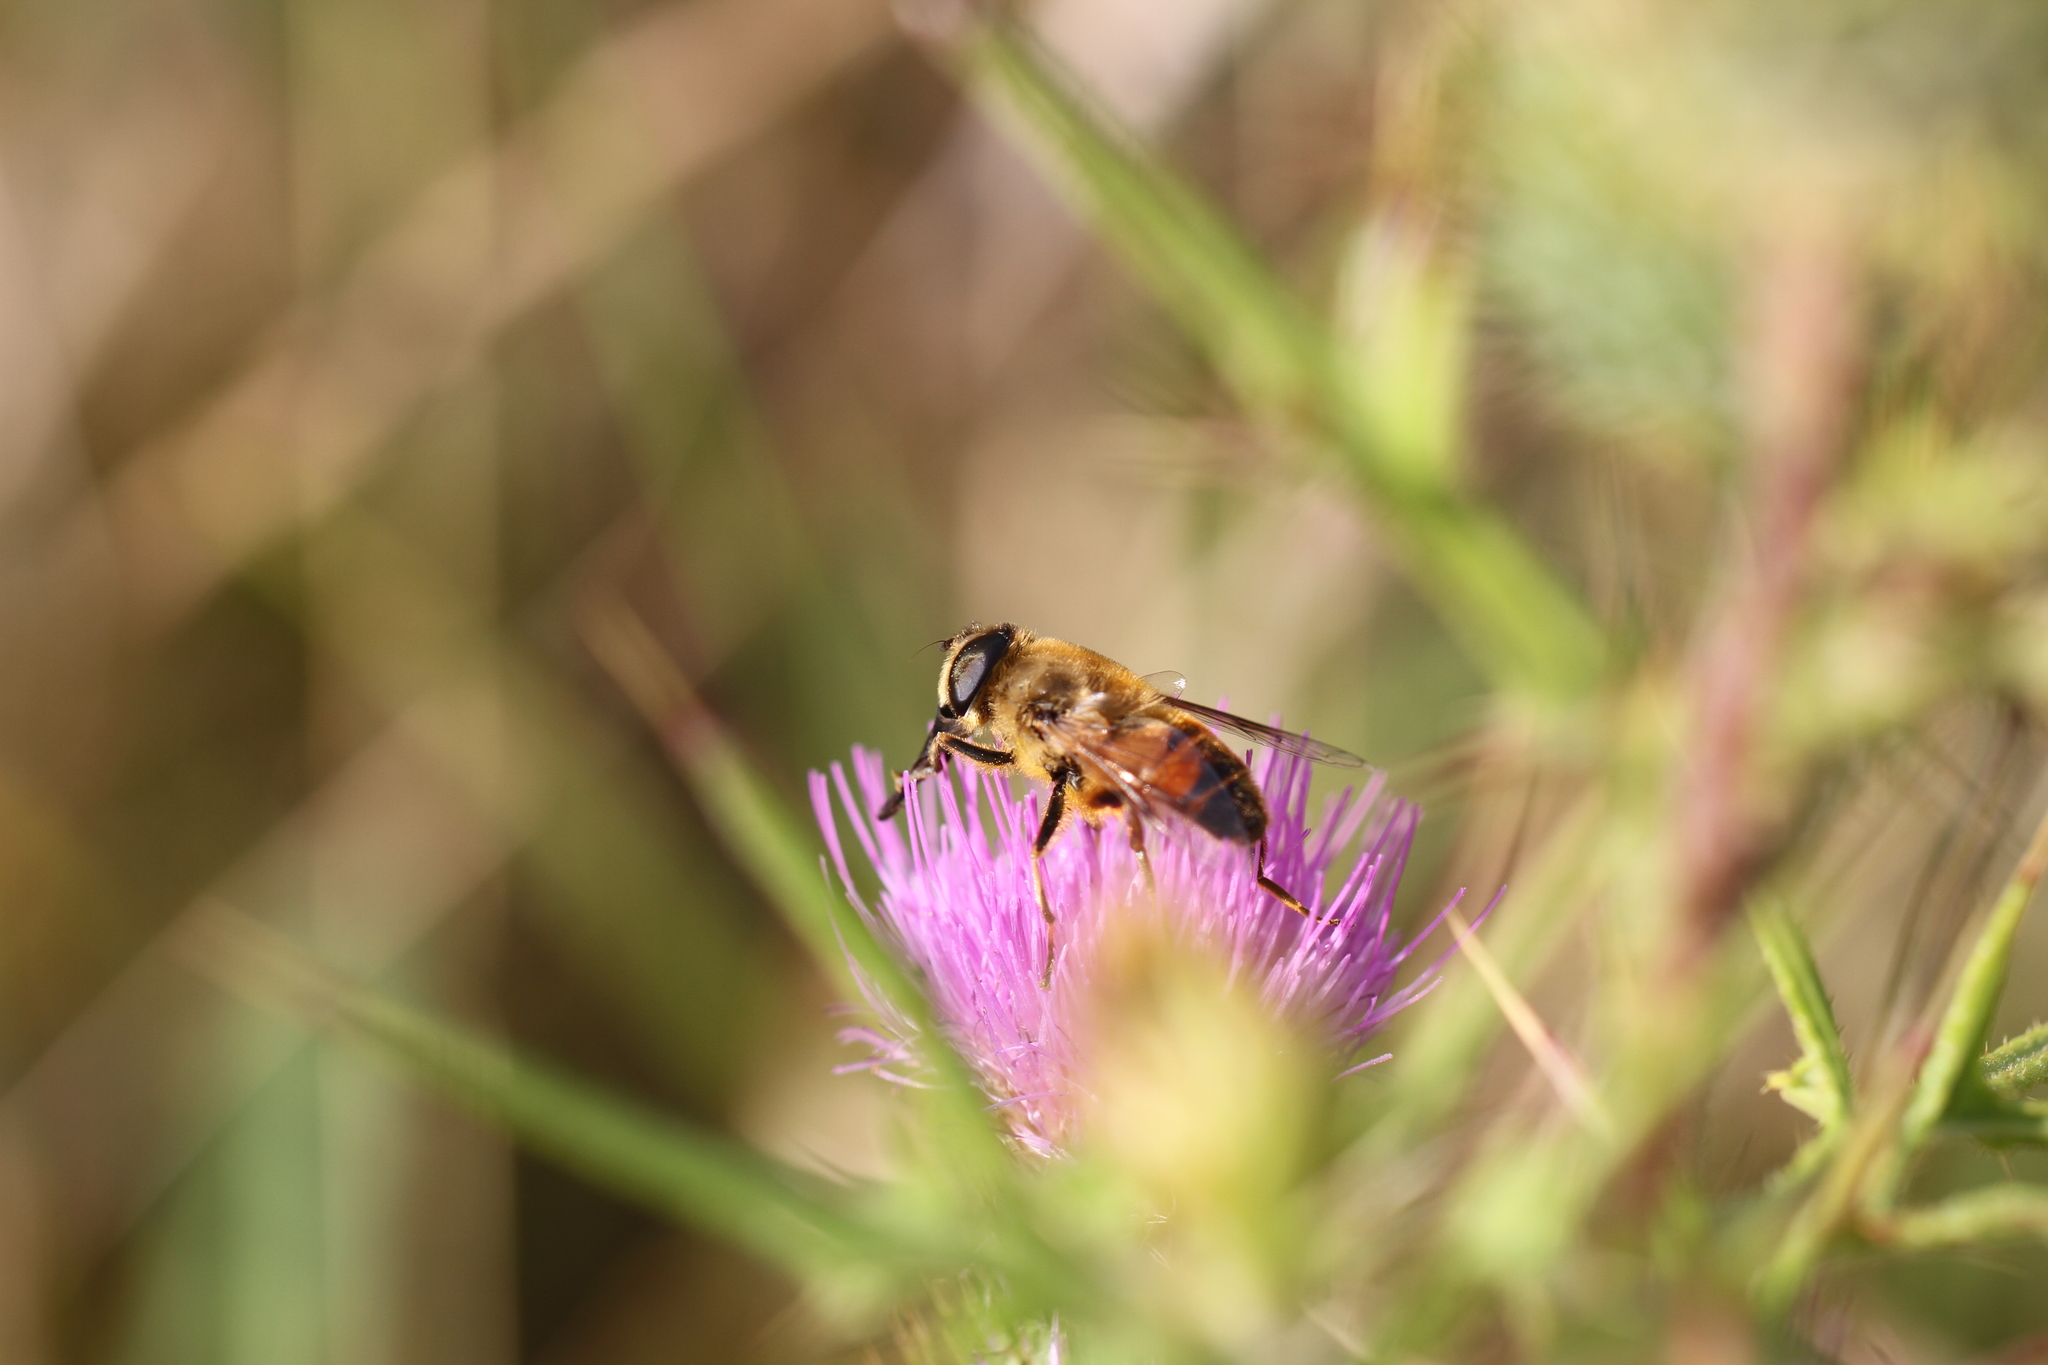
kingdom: Animalia
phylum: Arthropoda
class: Insecta
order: Diptera
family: Syrphidae
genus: Eristalis
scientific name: Eristalis tenax
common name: Drone fly
